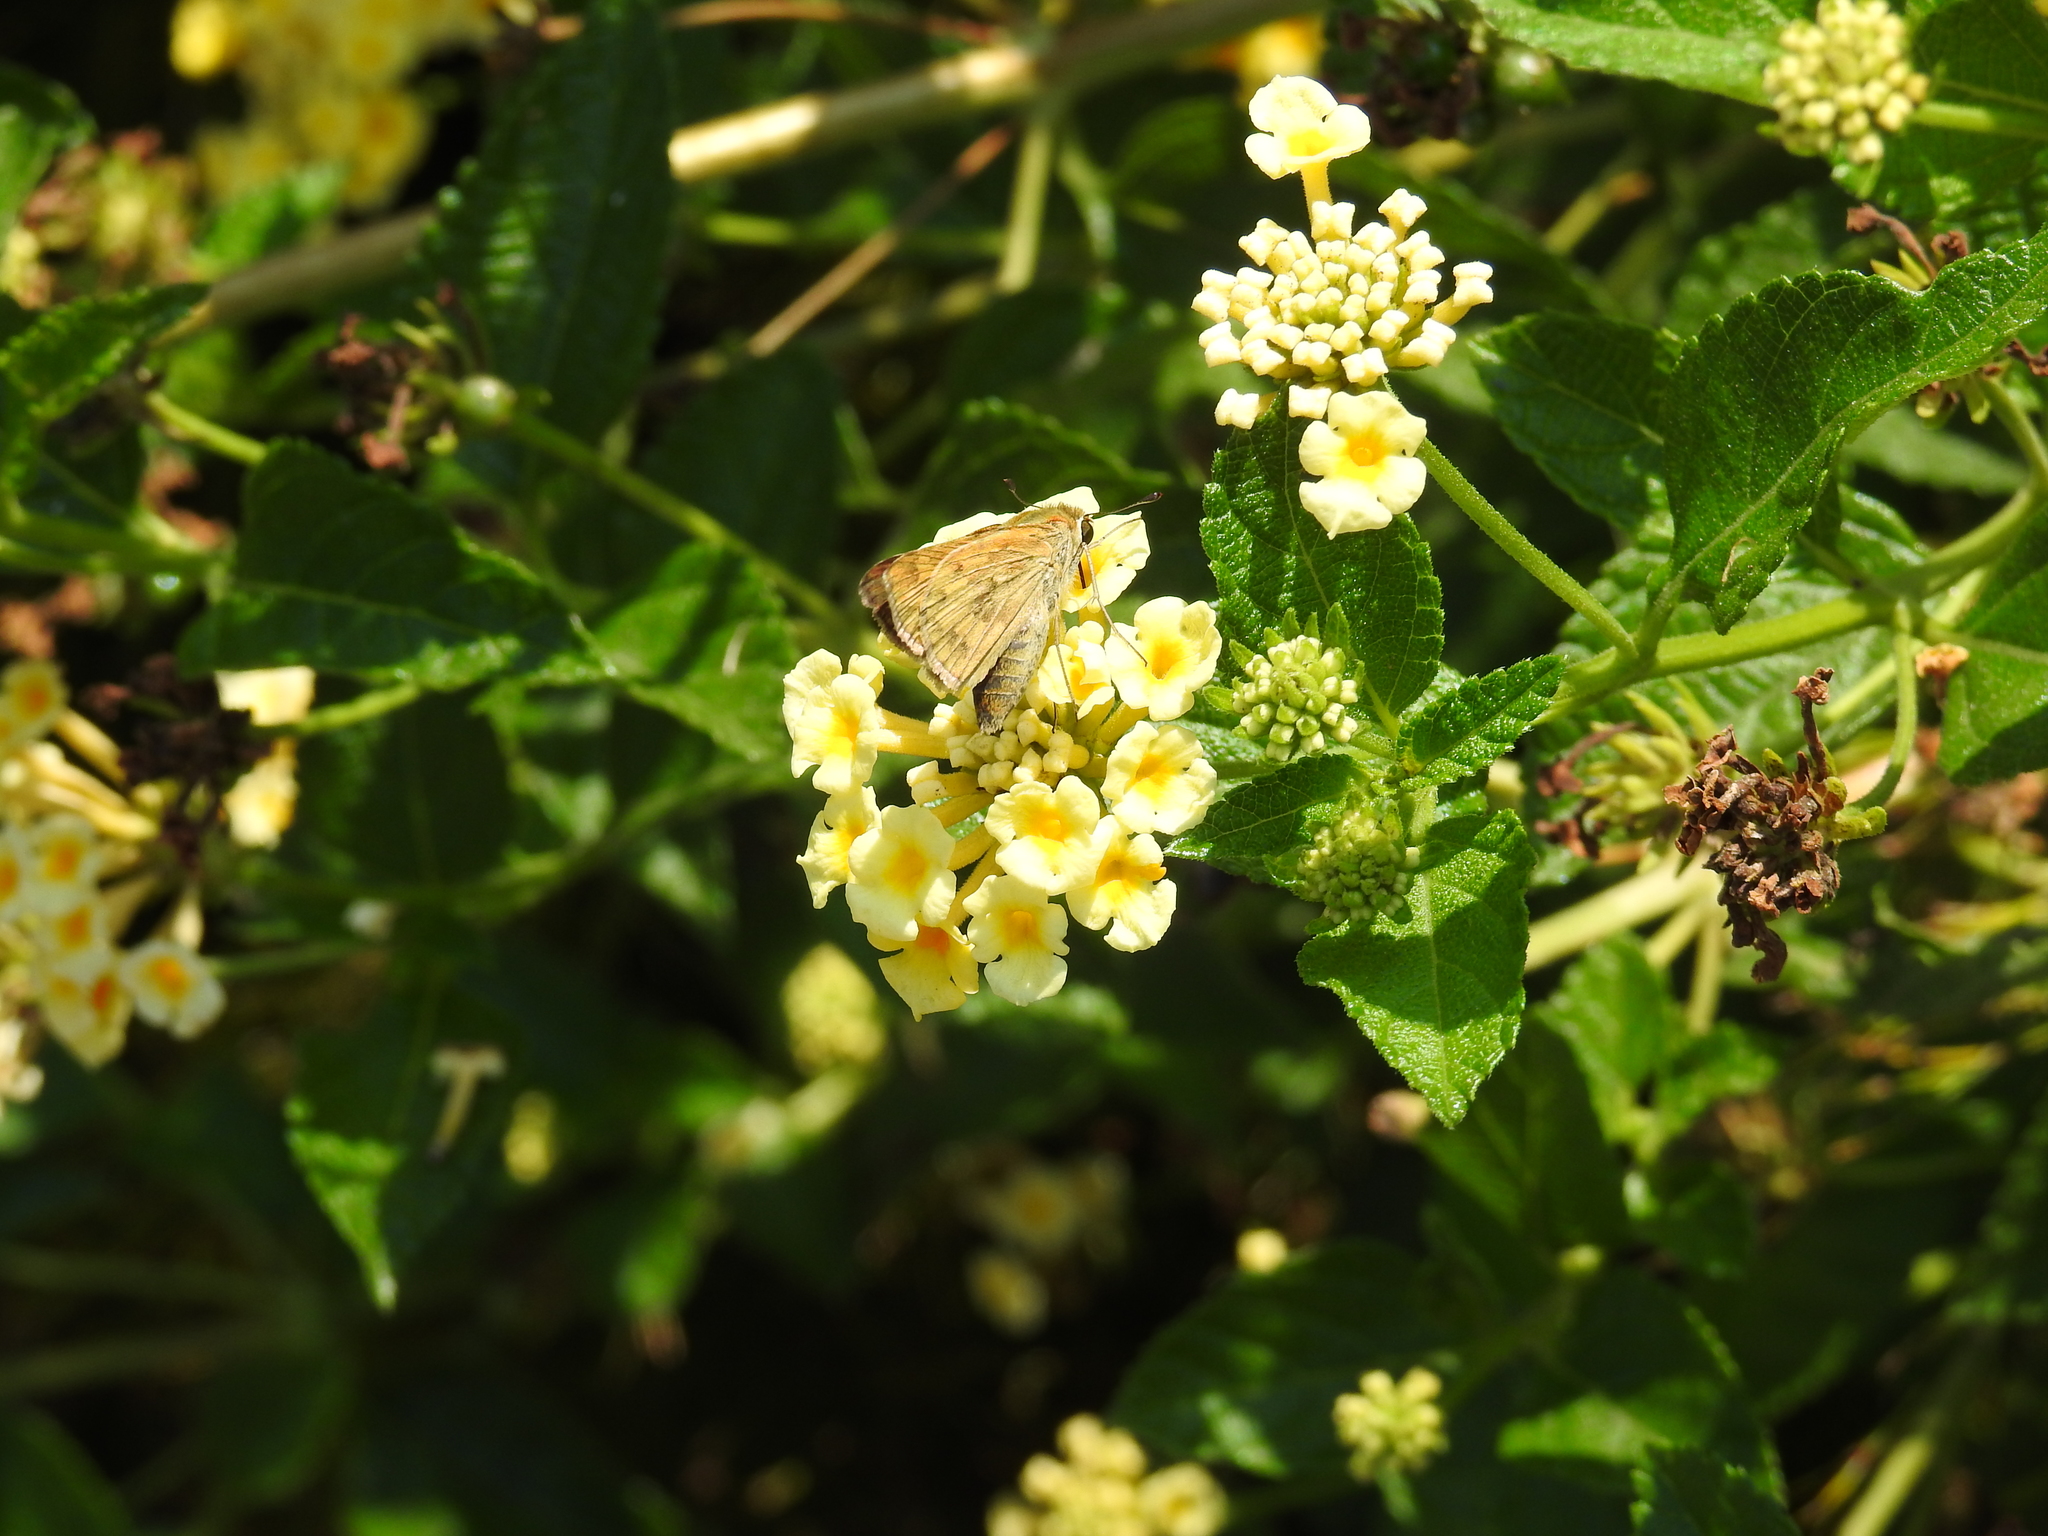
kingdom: Animalia
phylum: Arthropoda
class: Insecta
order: Lepidoptera
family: Hesperiidae
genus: Hylephila
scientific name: Hylephila phyleus
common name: Fiery skipper
